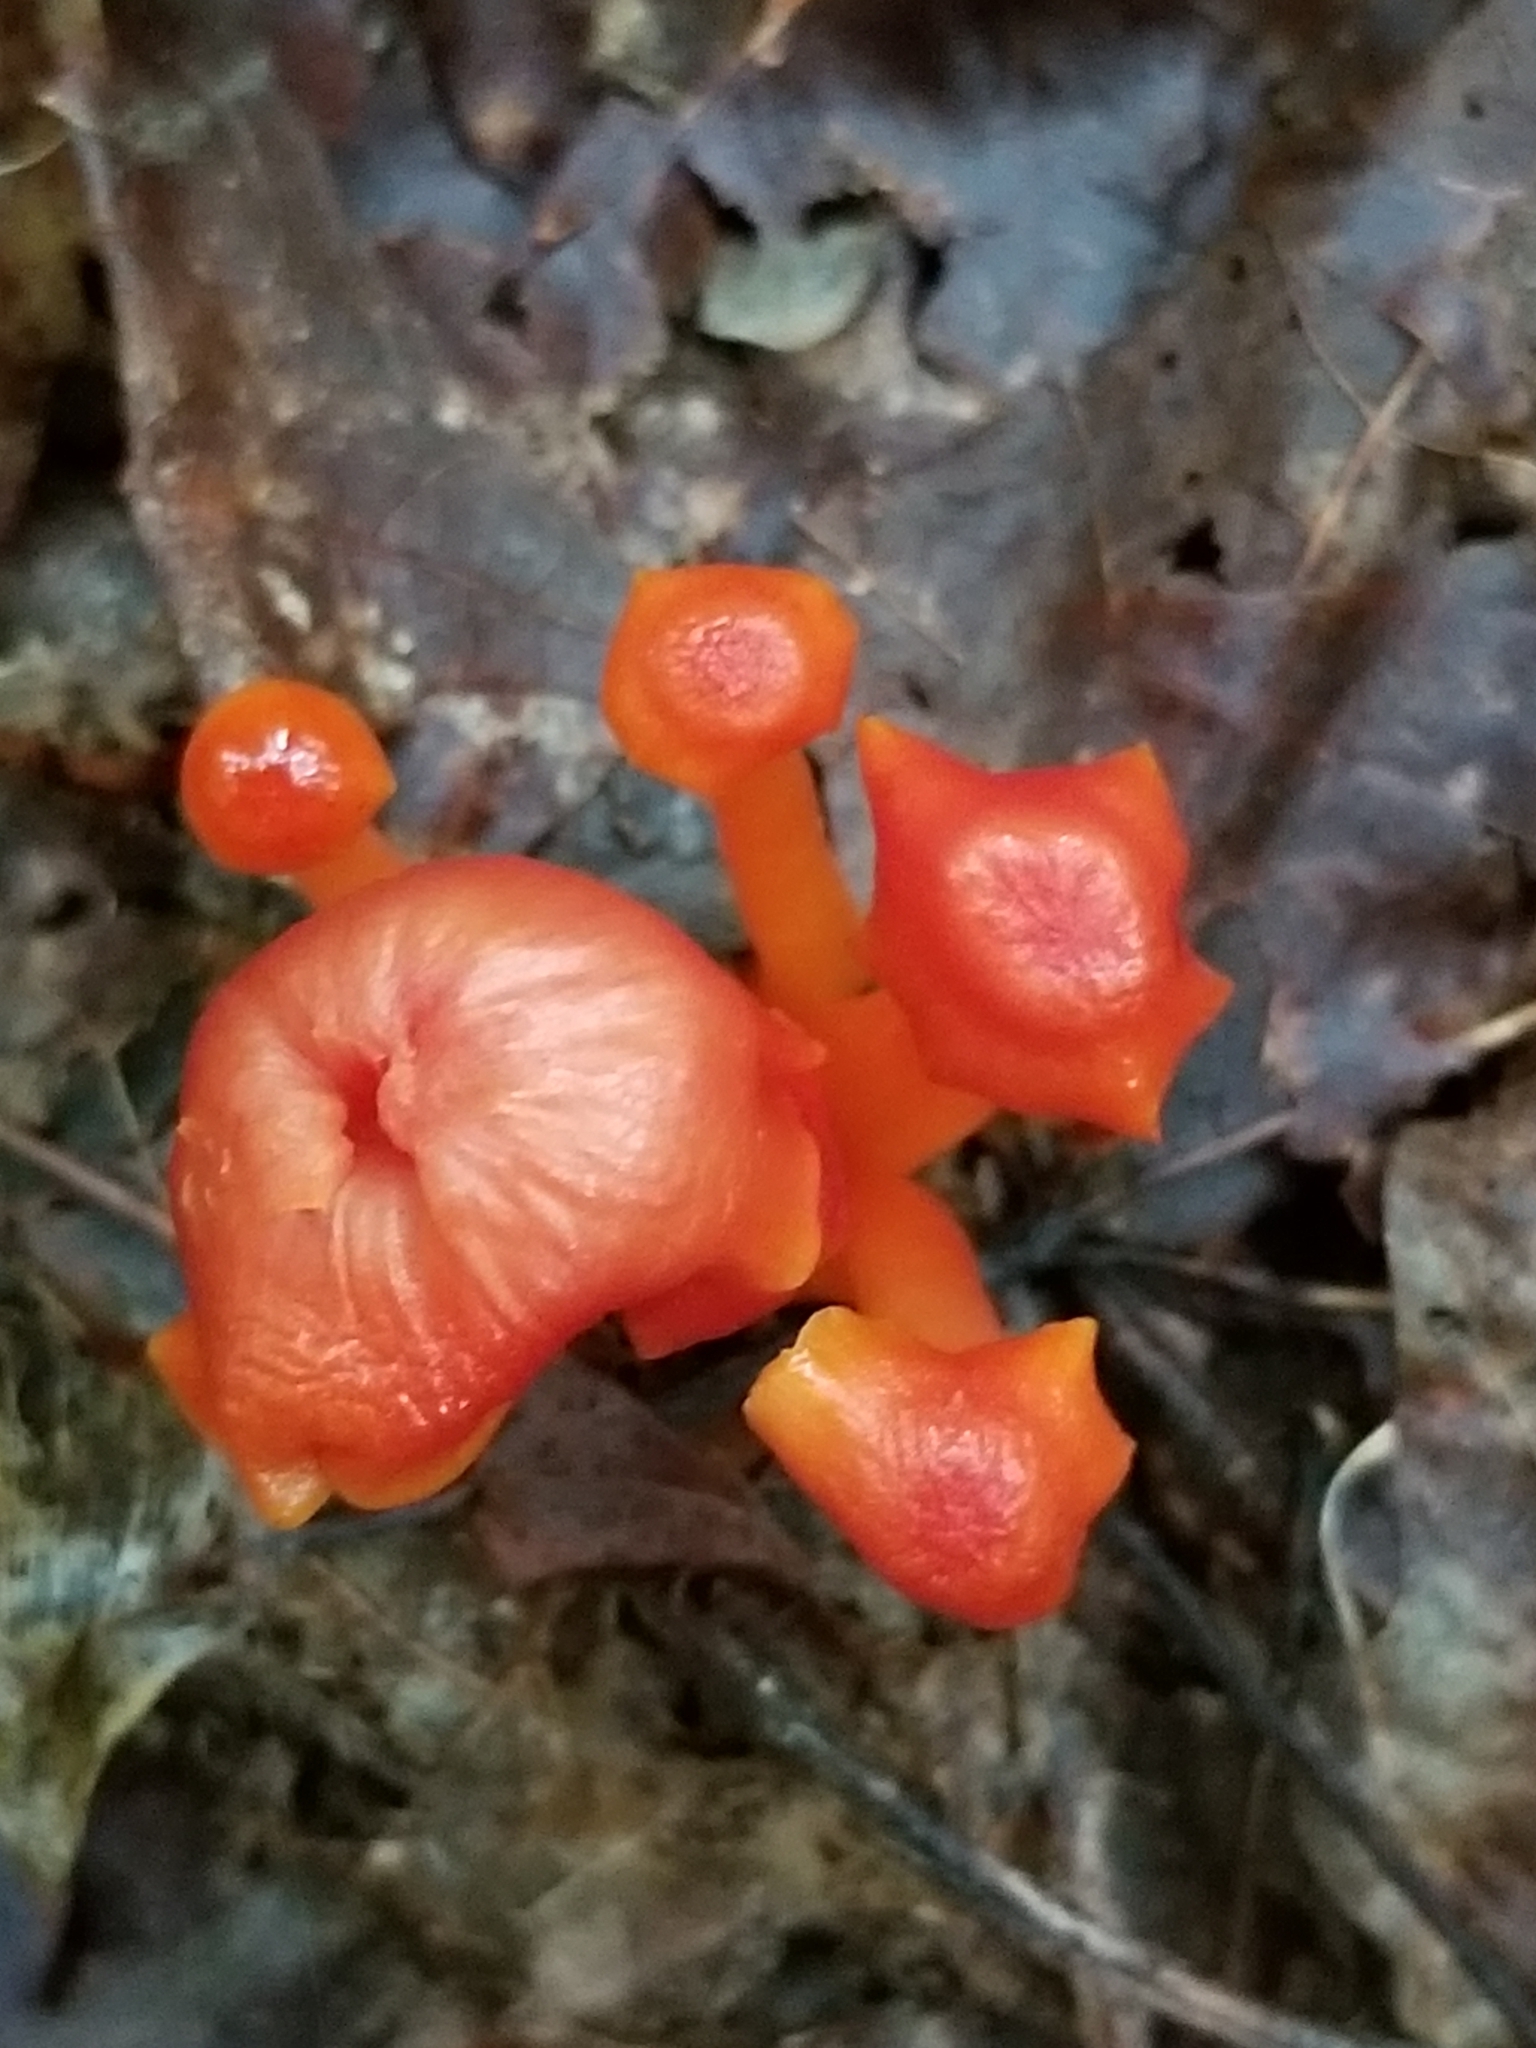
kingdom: Fungi
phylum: Basidiomycota
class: Agaricomycetes
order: Agaricales
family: Hygrophoraceae
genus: Hygrocybe
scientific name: Hygrocybe cantharellus
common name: Goblet waxcap
